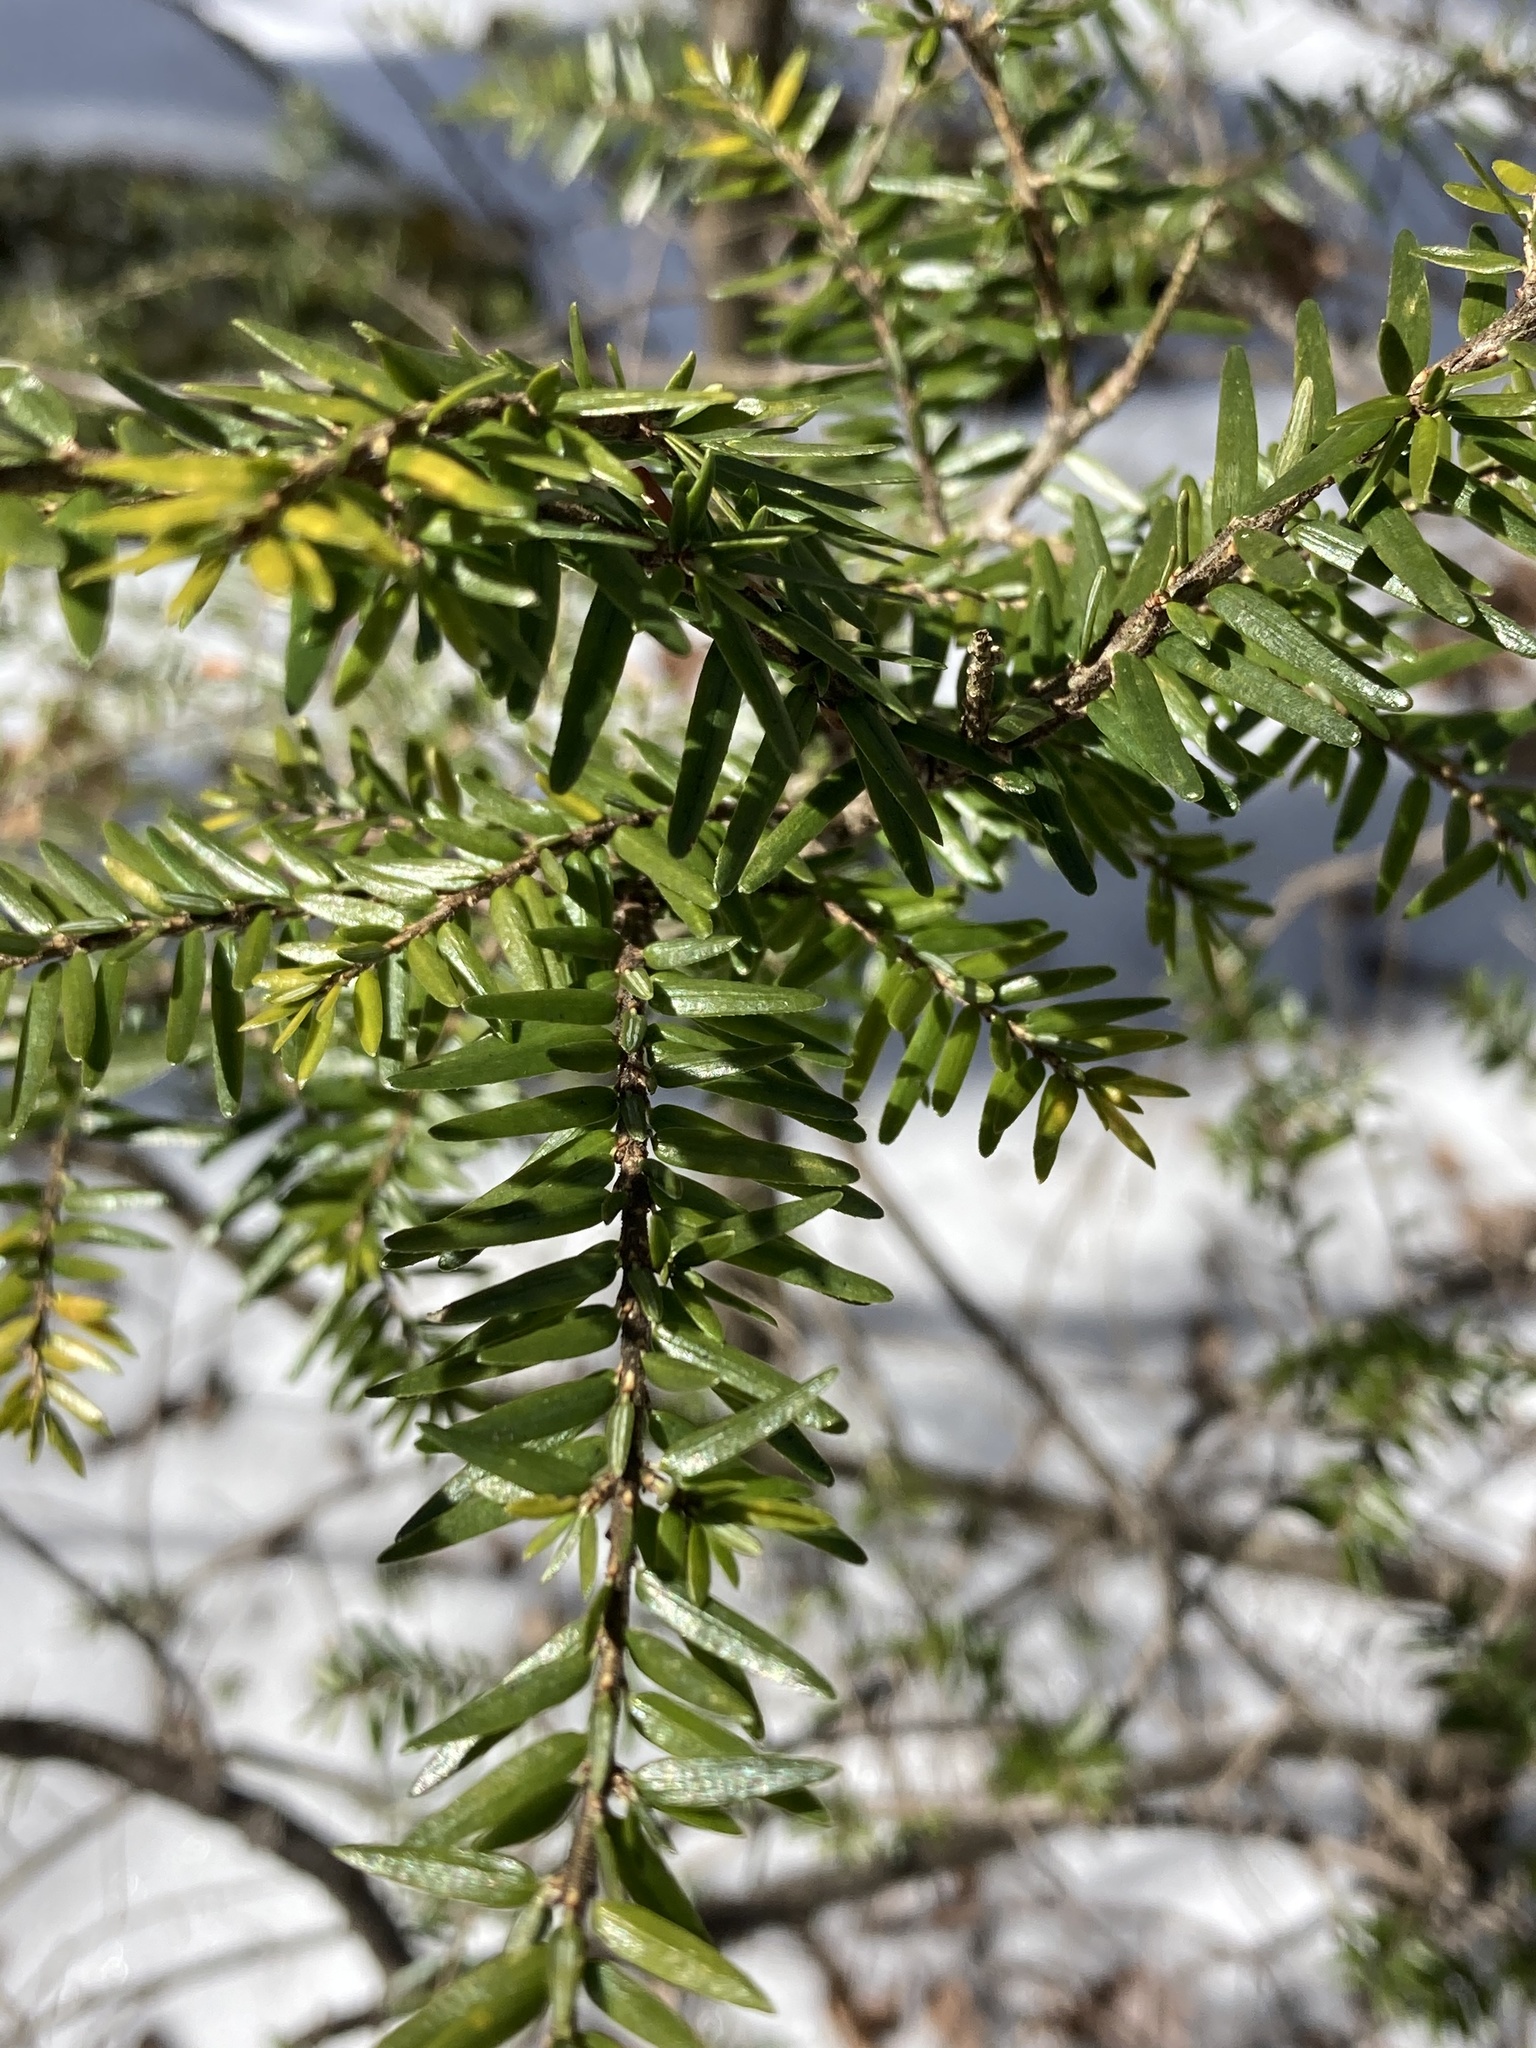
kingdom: Plantae
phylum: Tracheophyta
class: Pinopsida
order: Pinales
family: Pinaceae
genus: Tsuga
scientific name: Tsuga canadensis
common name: Eastern hemlock
